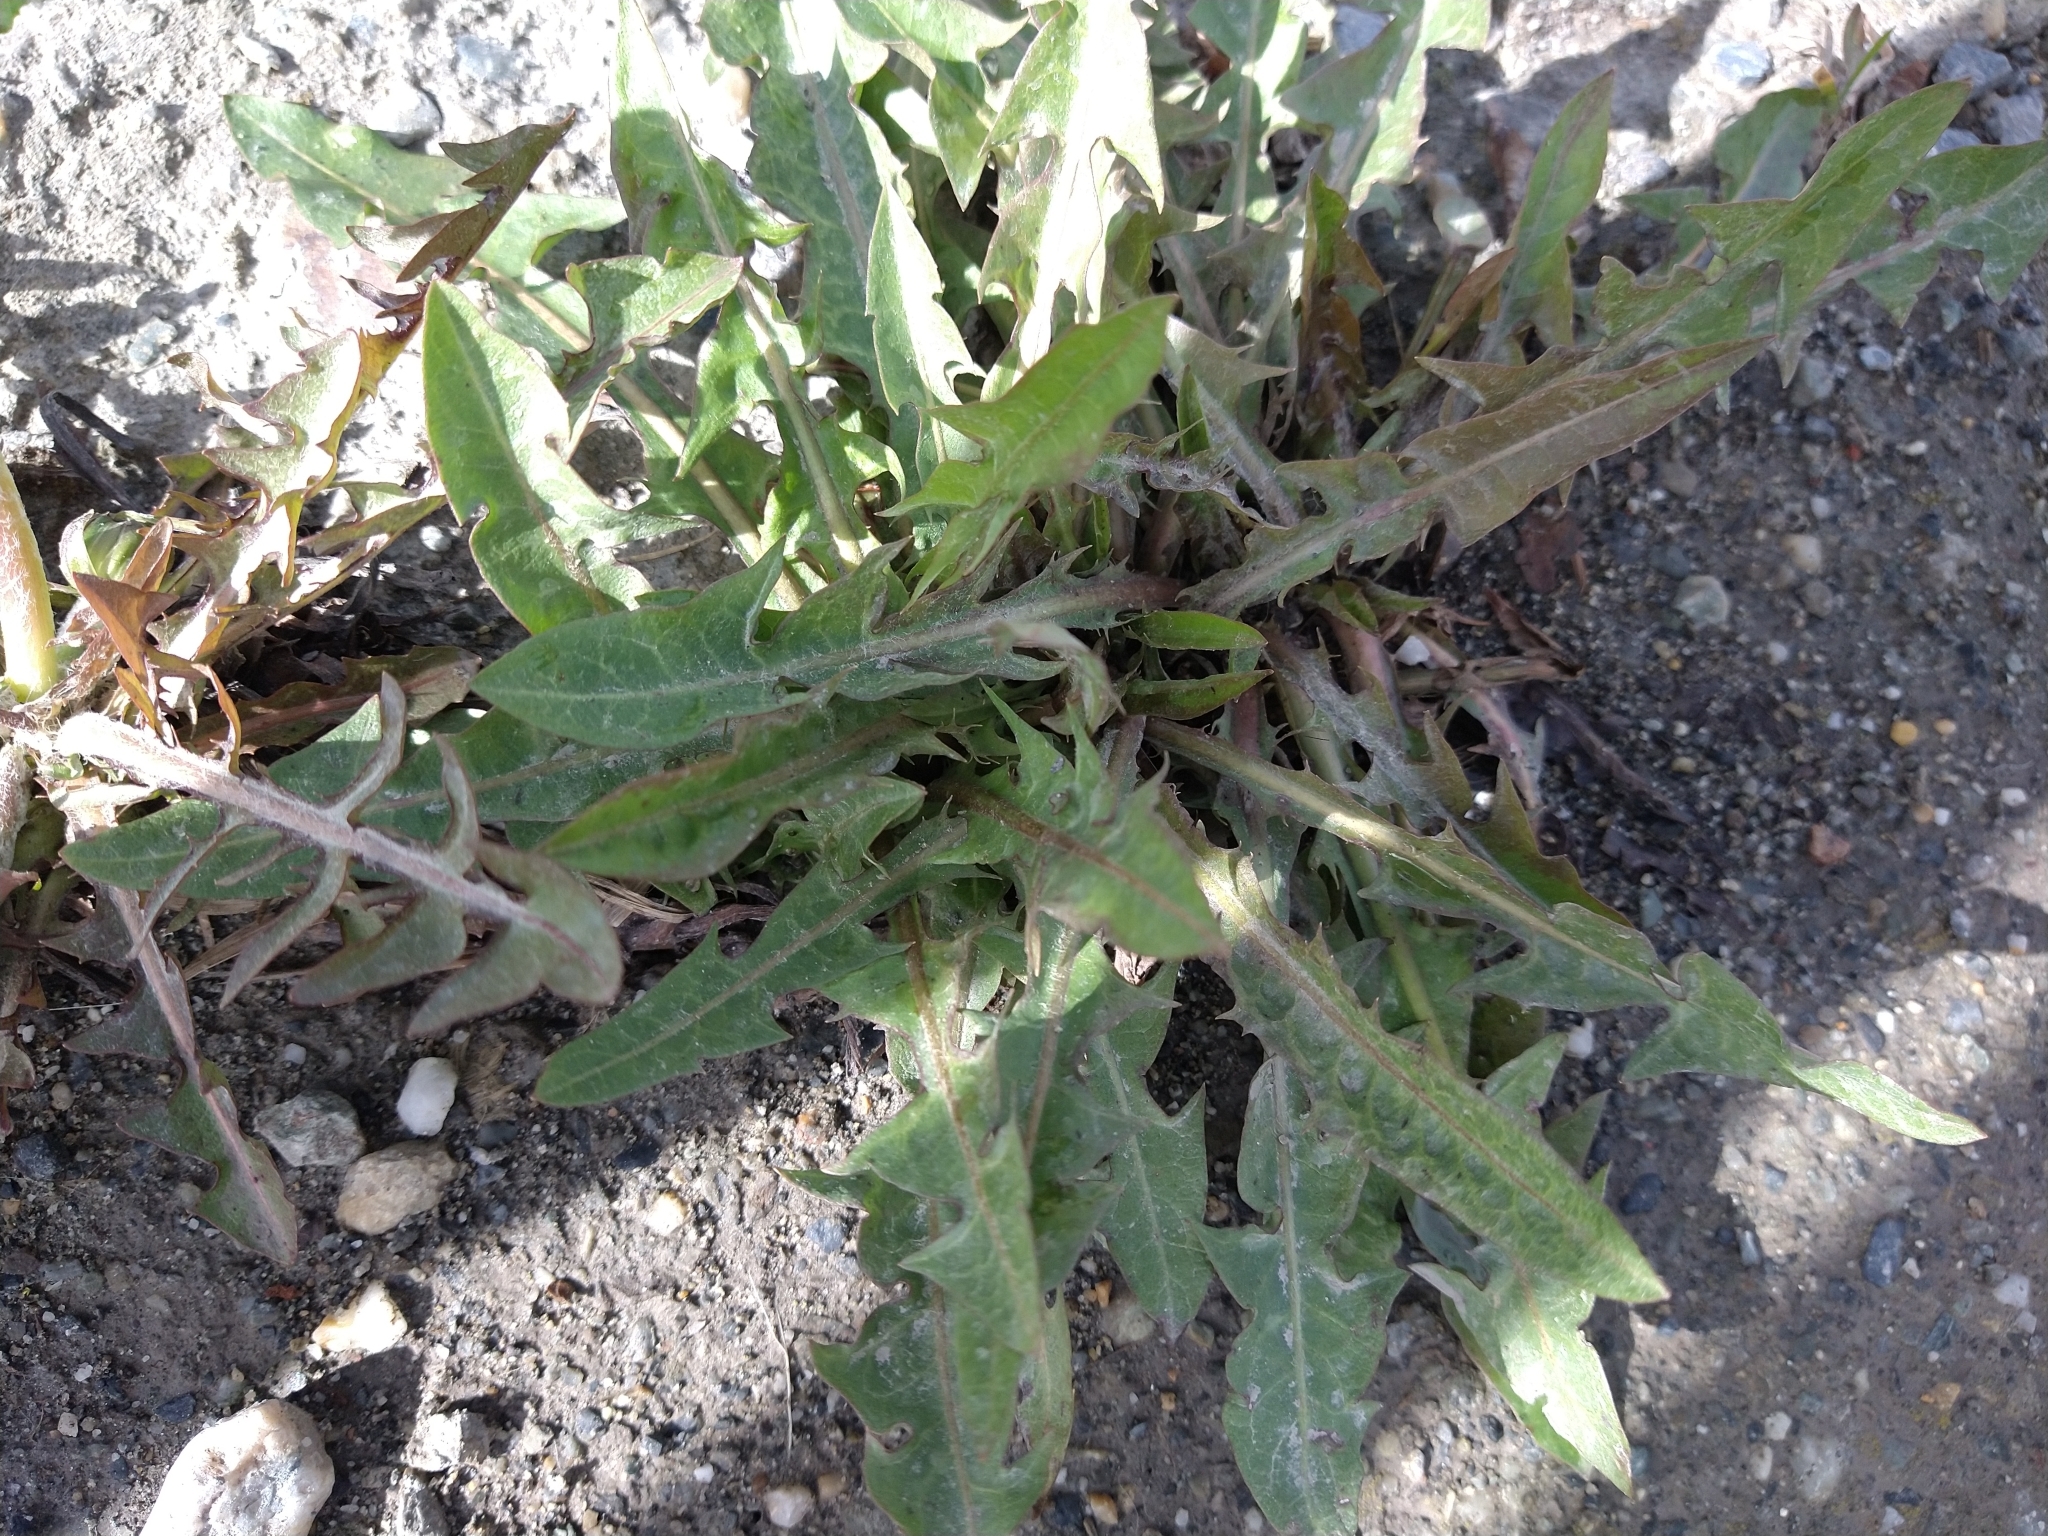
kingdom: Plantae
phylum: Tracheophyta
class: Magnoliopsida
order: Asterales
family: Asteraceae
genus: Taraxacum
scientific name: Taraxacum officinale
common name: Common dandelion
